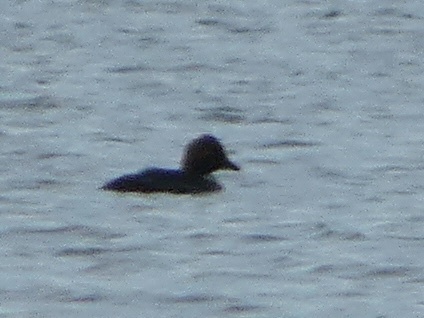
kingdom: Animalia
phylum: Chordata
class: Aves
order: Anseriformes
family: Anatidae
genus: Bucephala
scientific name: Bucephala clangula
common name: Common goldeneye
